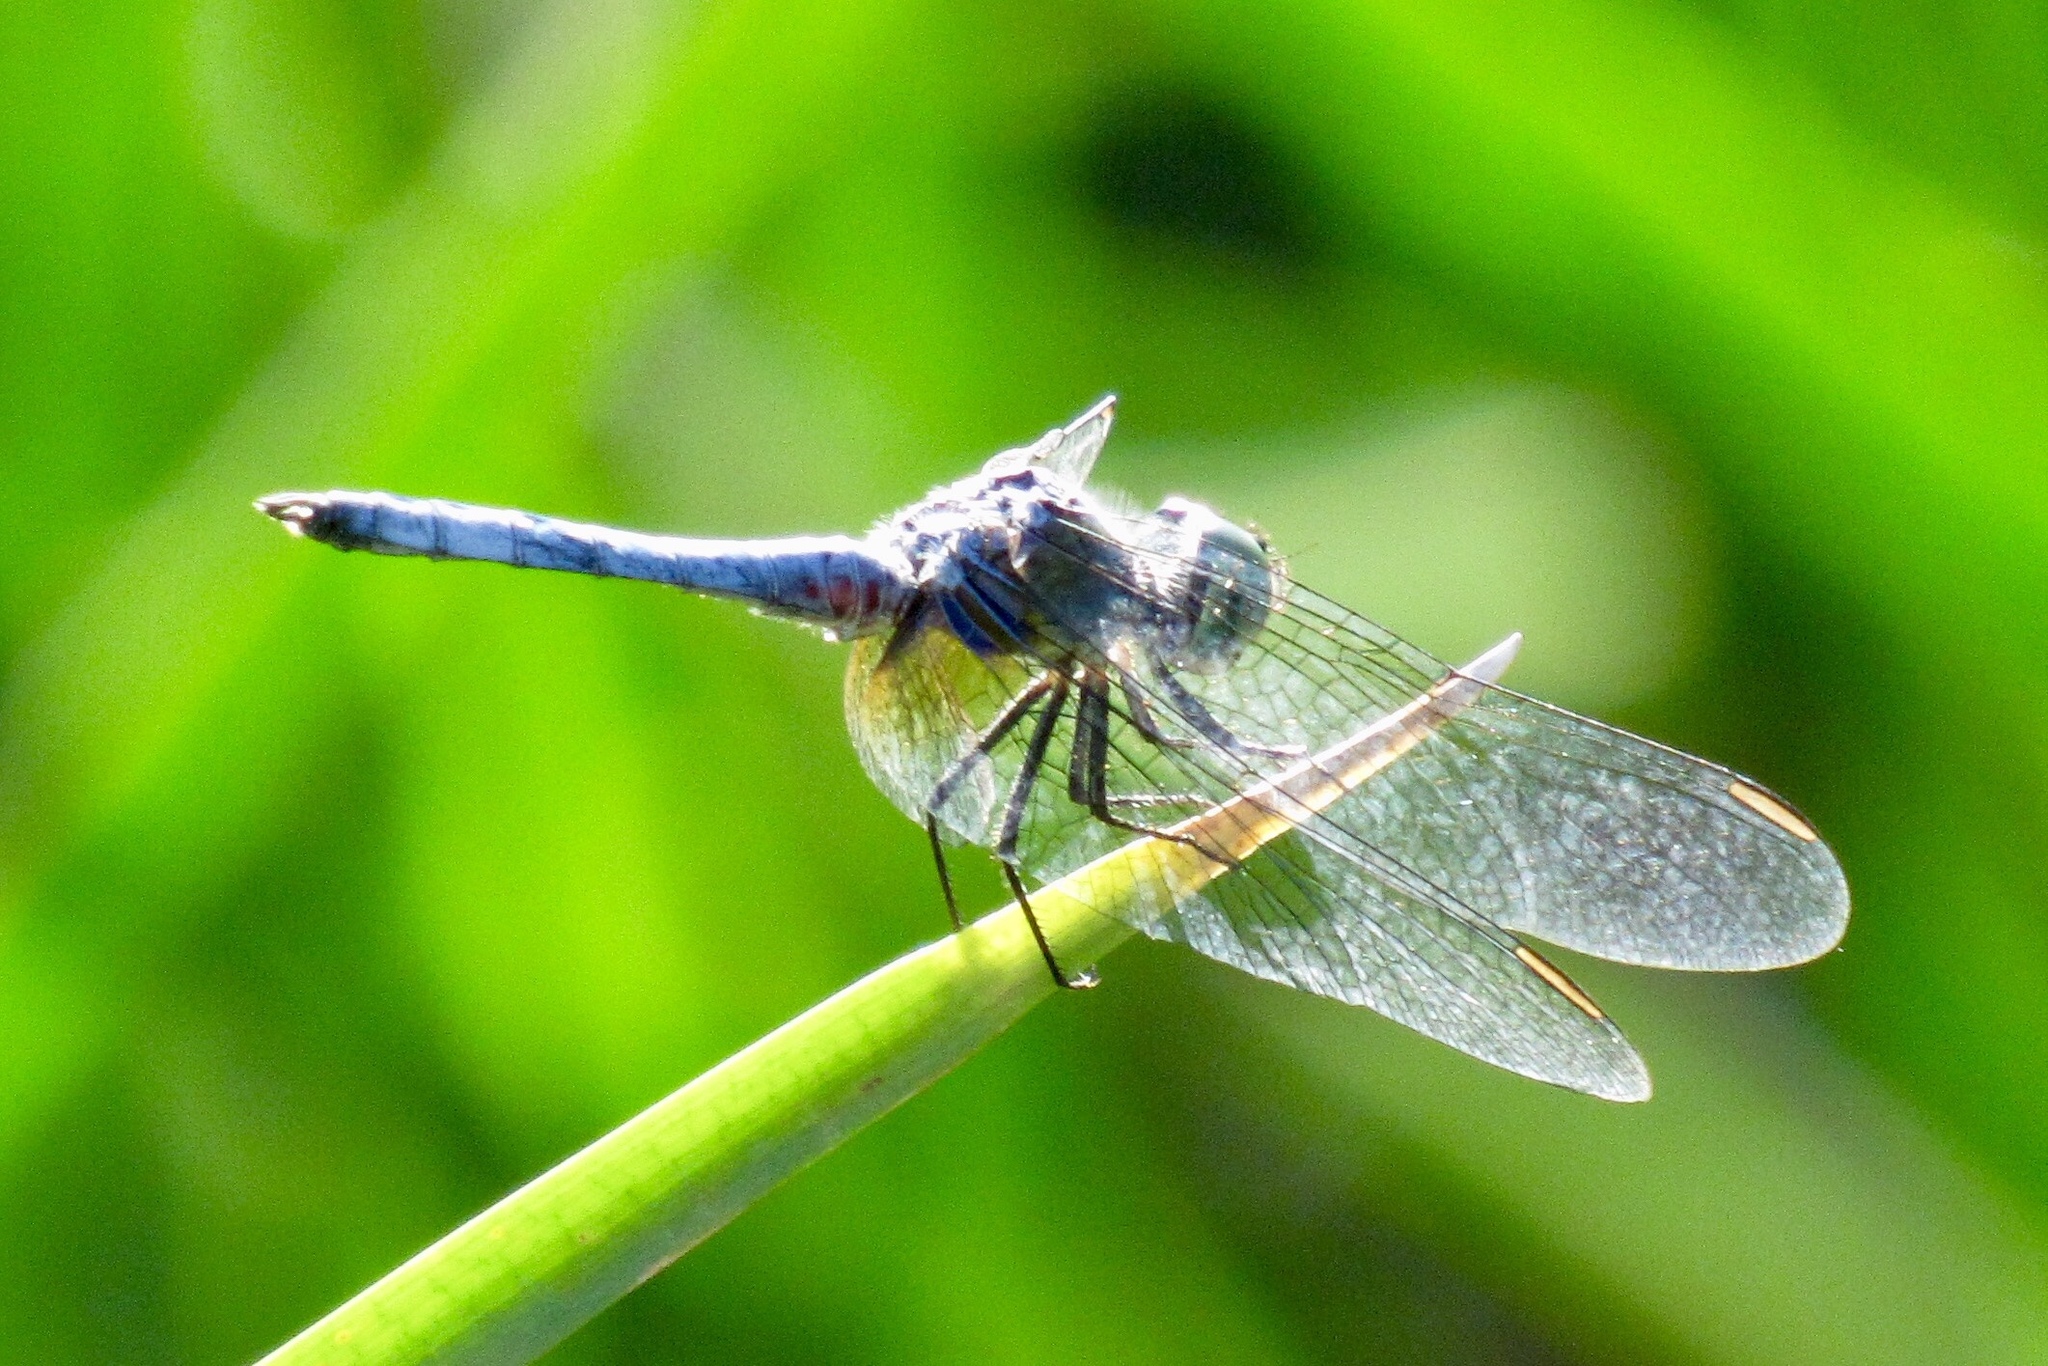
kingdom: Animalia
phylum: Arthropoda
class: Insecta
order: Odonata
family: Libellulidae
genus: Pachydiplax
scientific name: Pachydiplax longipennis
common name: Blue dasher
